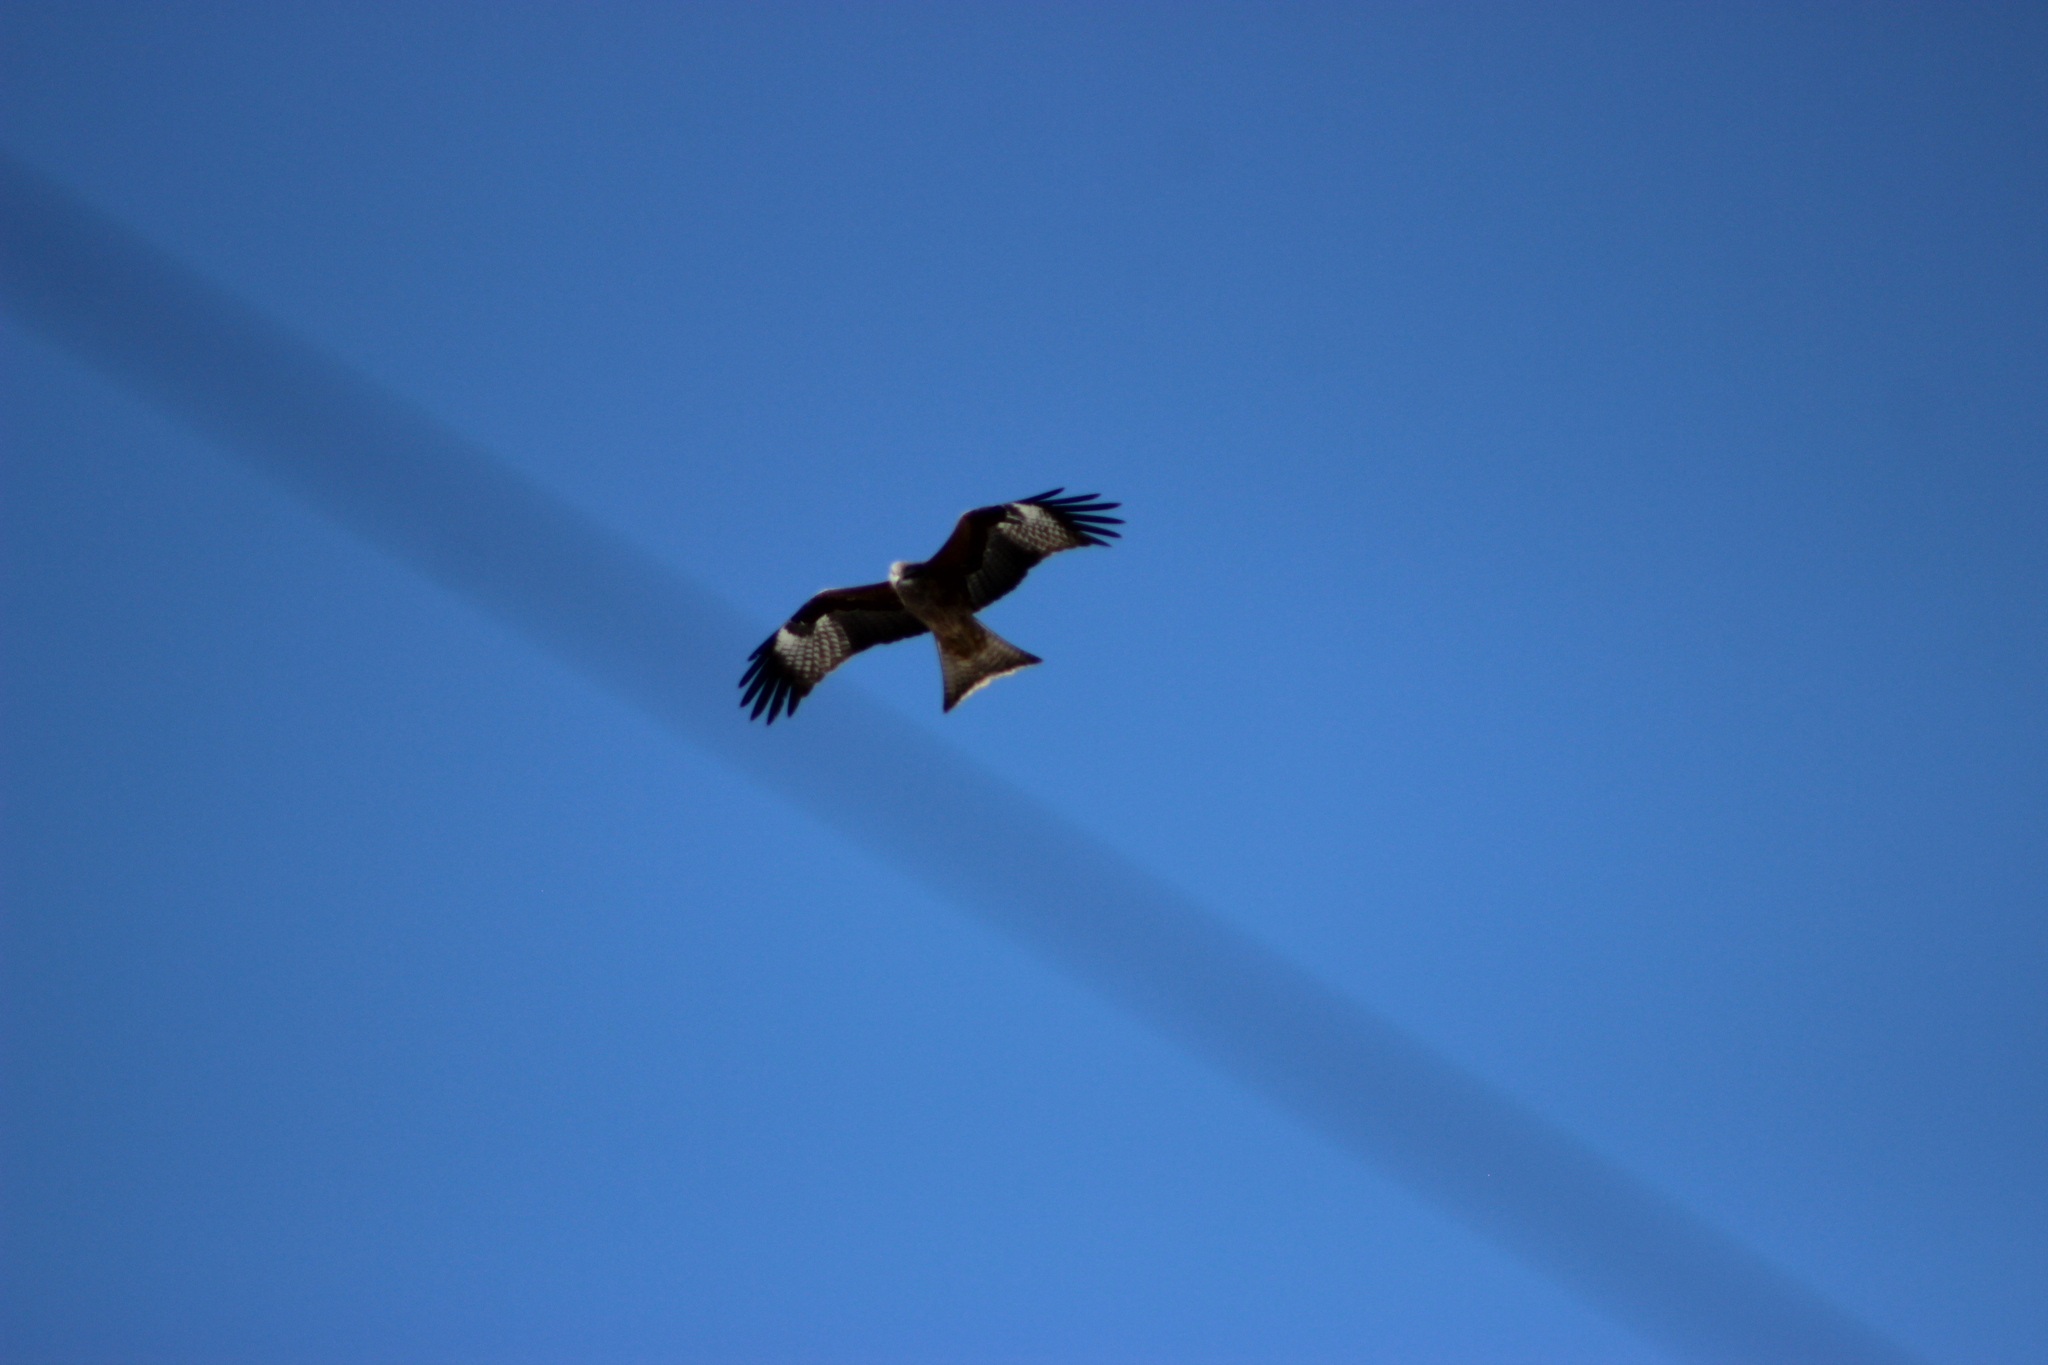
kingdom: Animalia
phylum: Chordata
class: Aves
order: Accipitriformes
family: Accipitridae
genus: Milvus
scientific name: Milvus migrans
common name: Black kite
